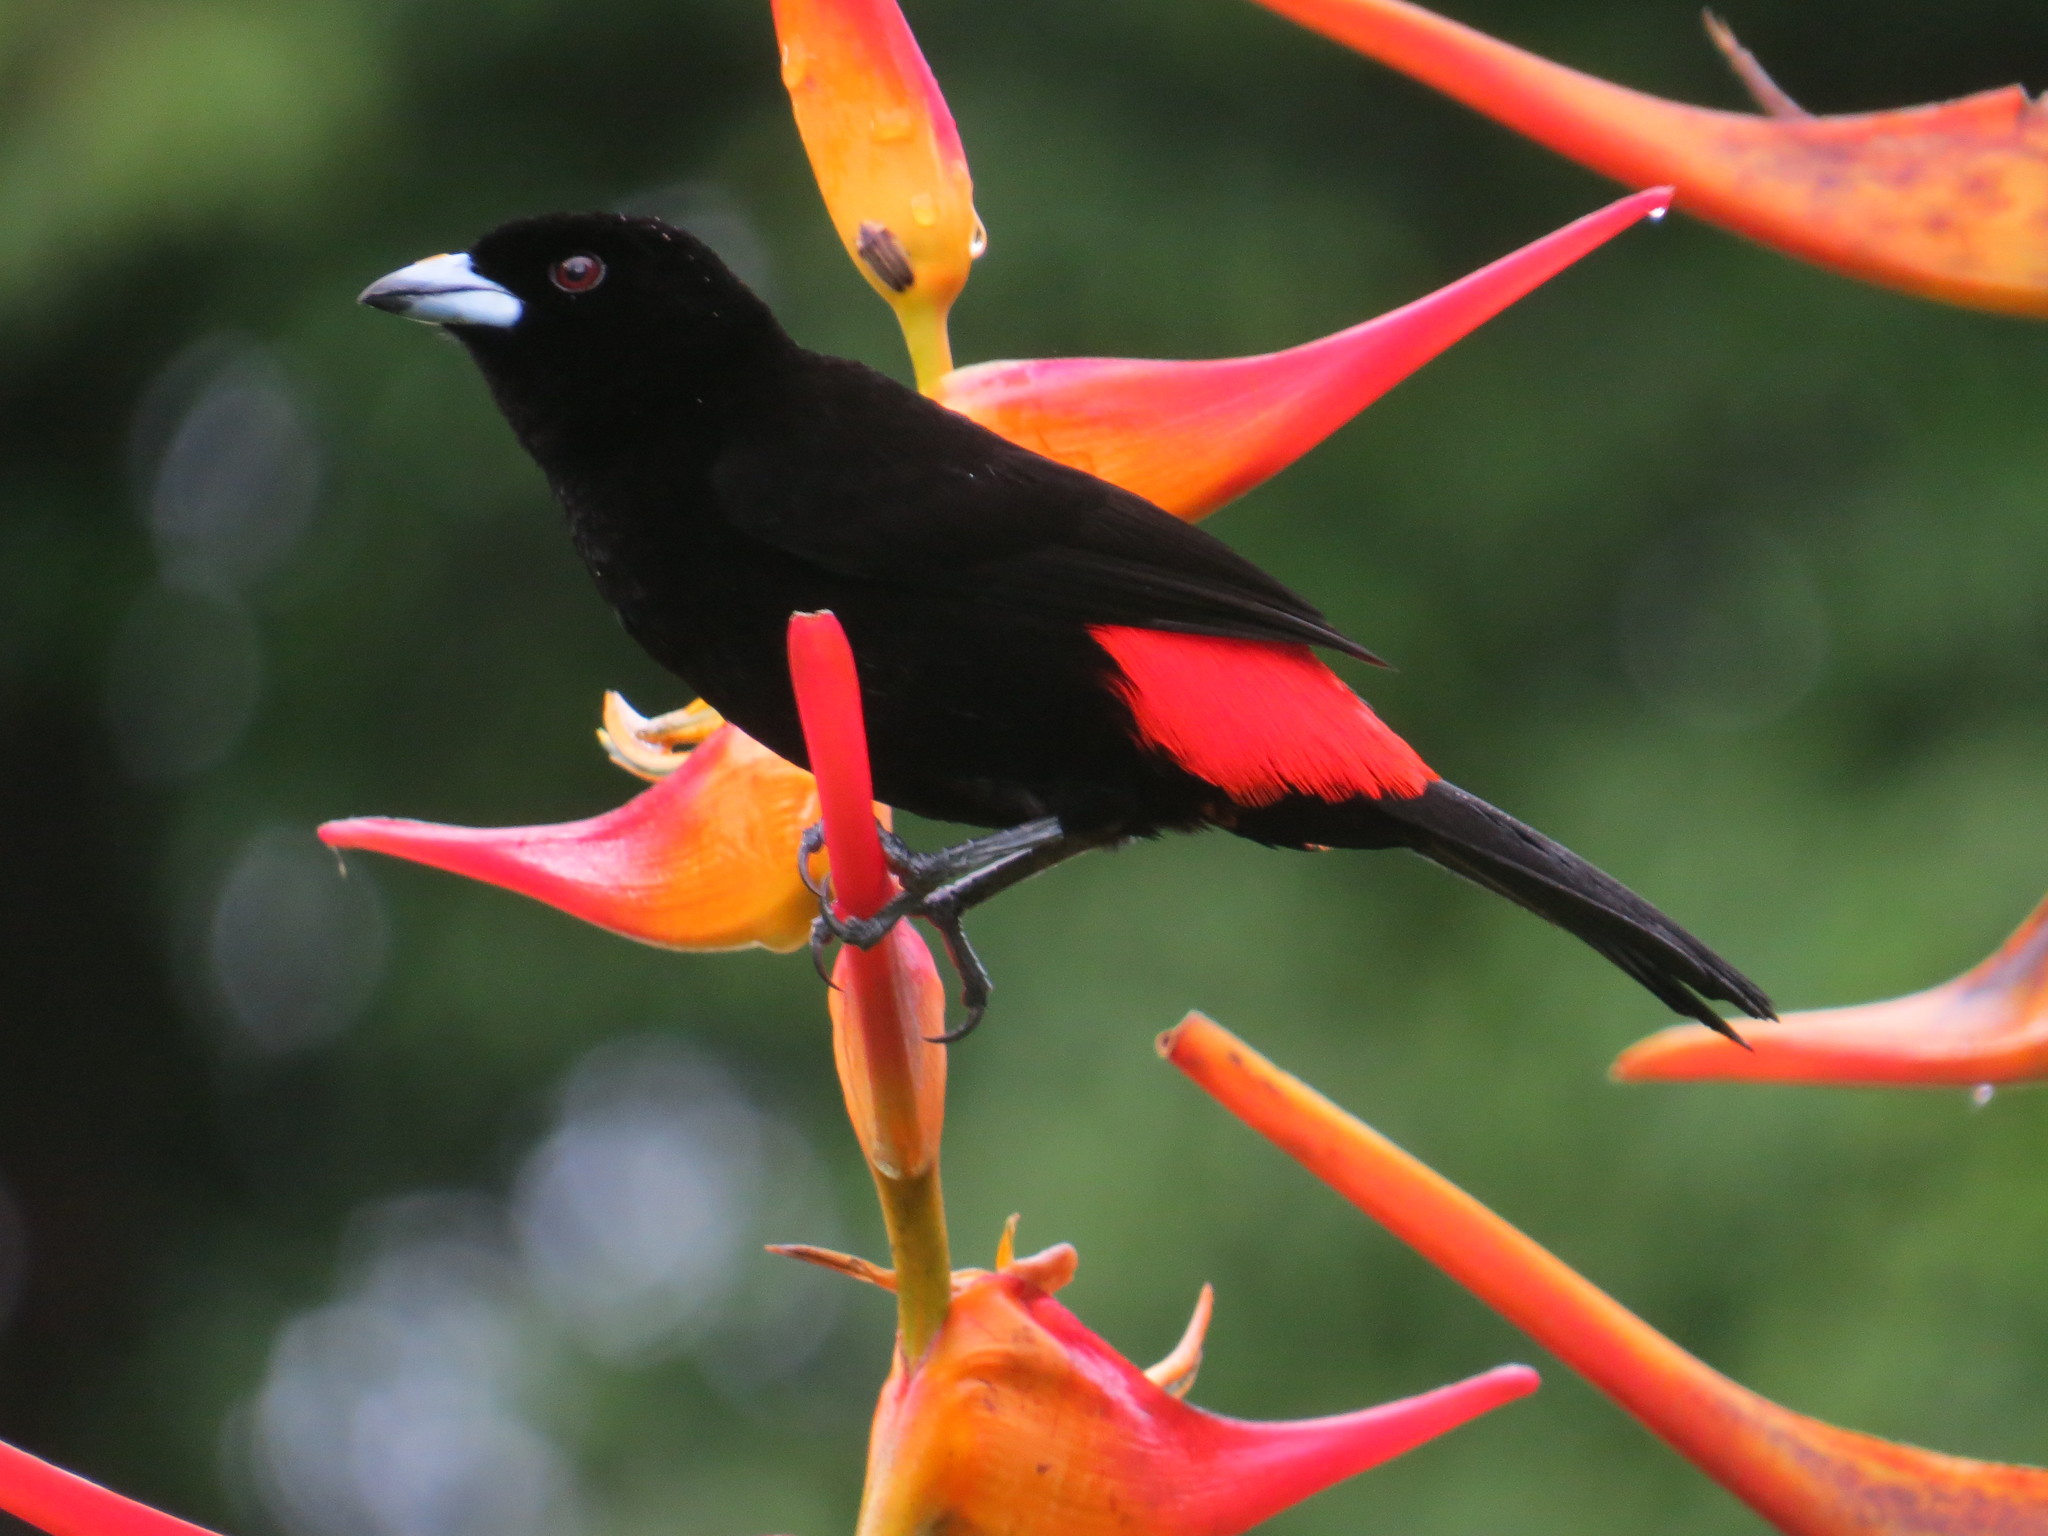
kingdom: Animalia
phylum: Chordata
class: Aves
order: Passeriformes
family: Thraupidae
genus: Ramphocelus
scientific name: Ramphocelus passerinii
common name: Passerini's tanager
